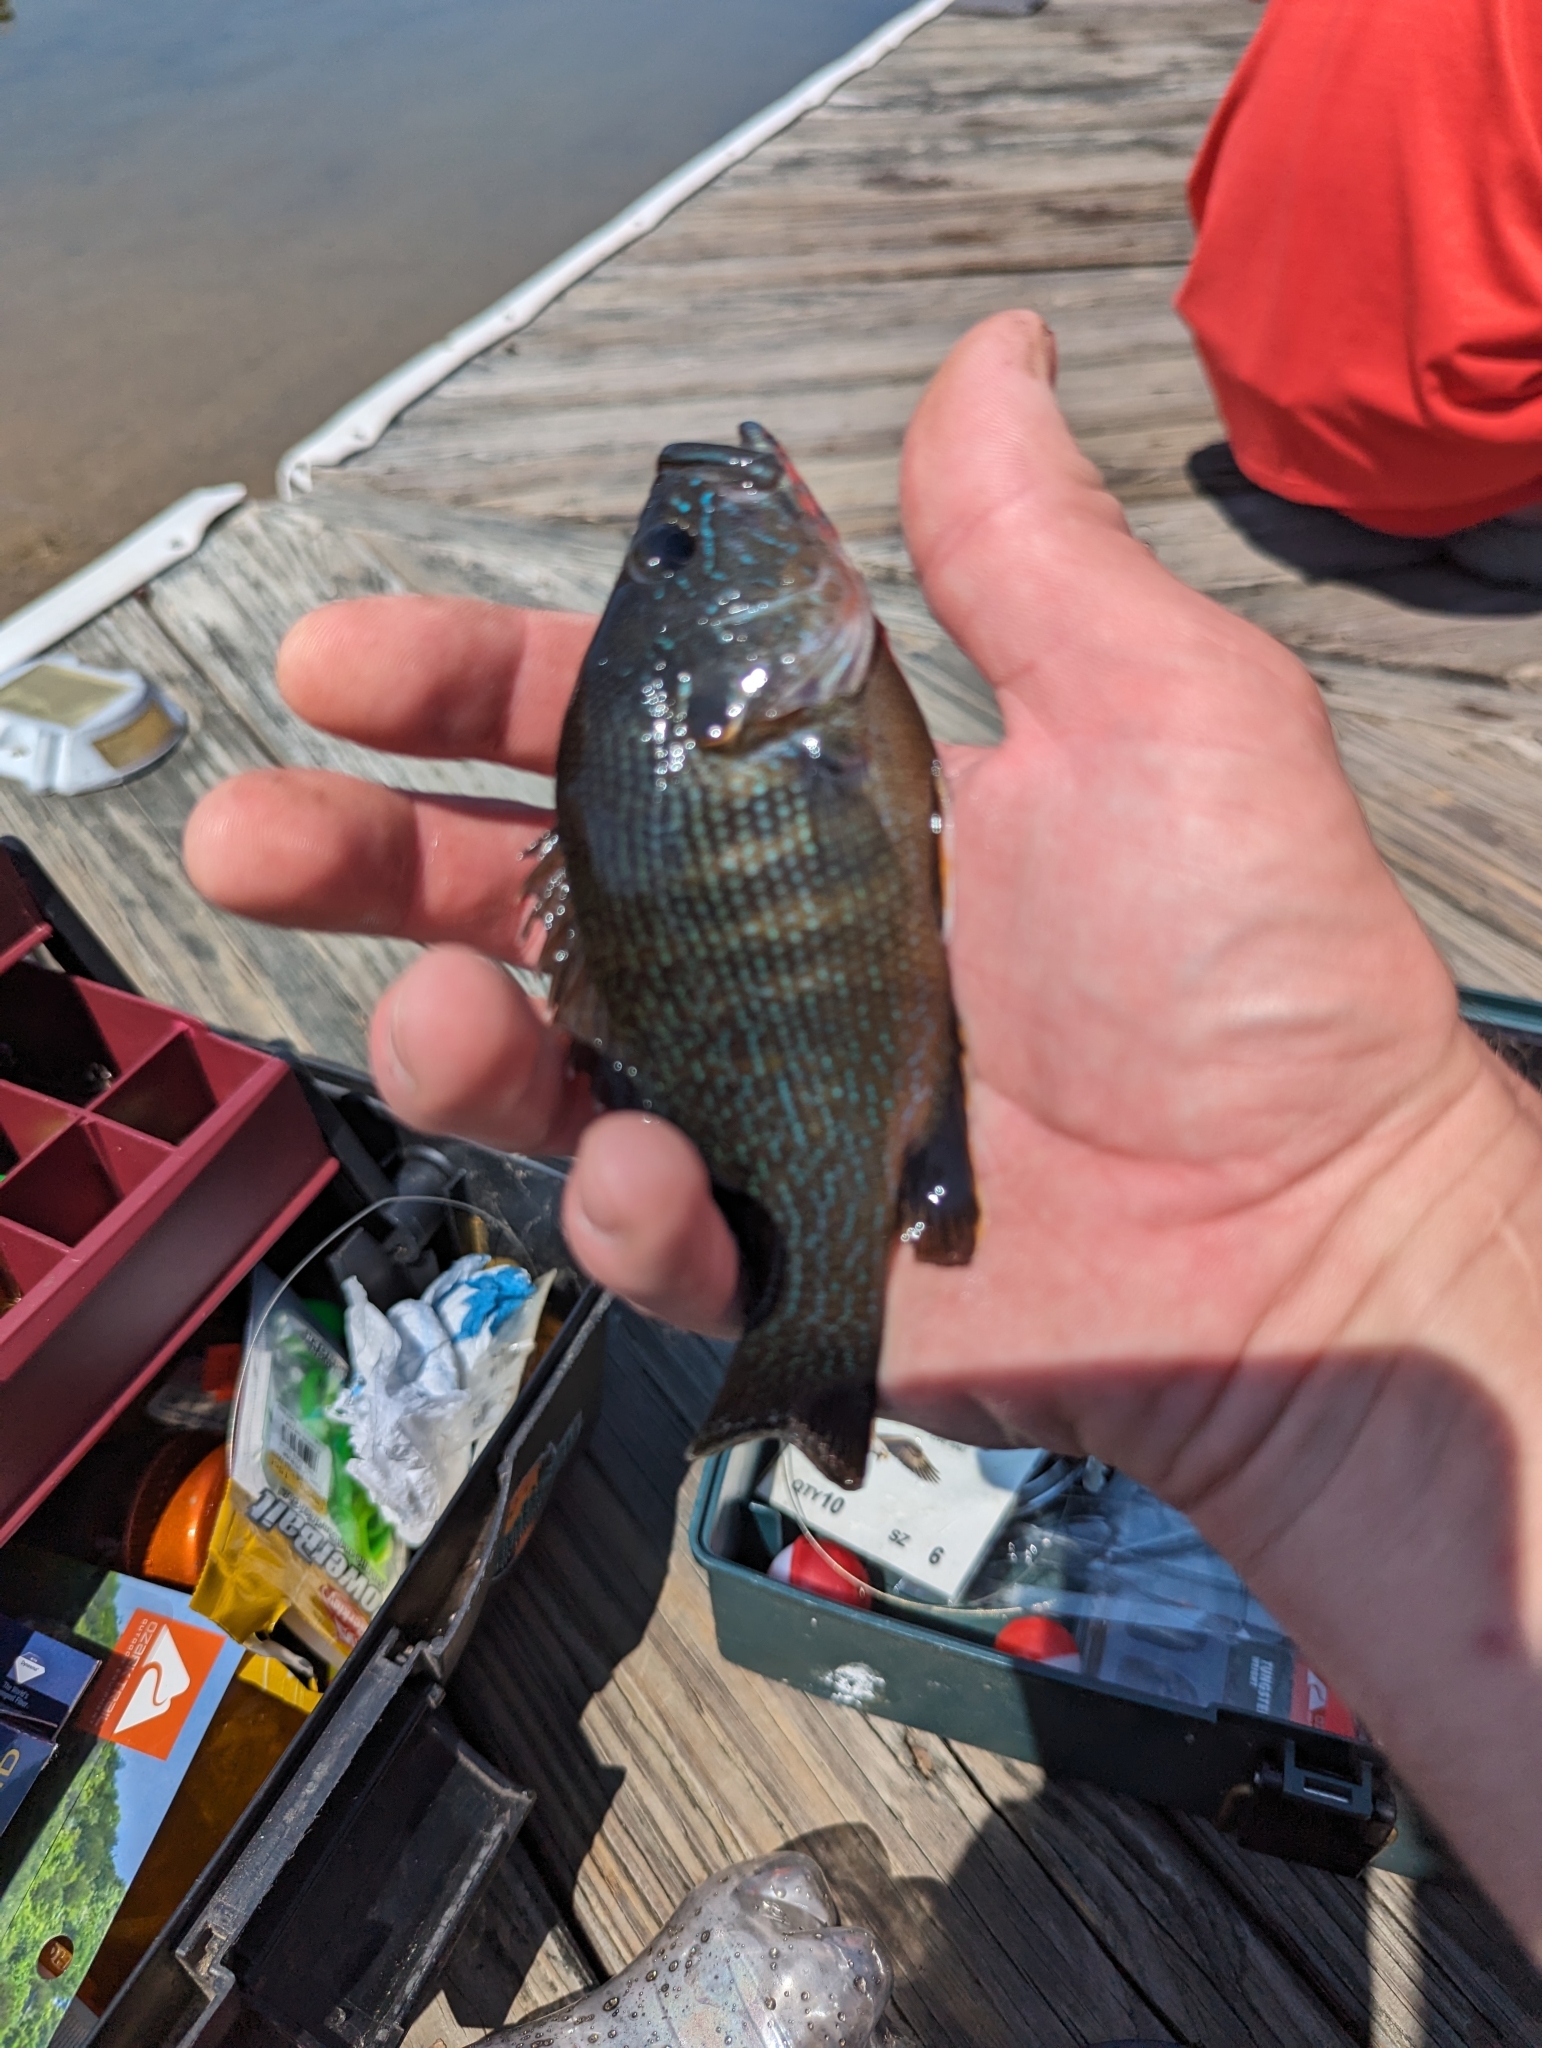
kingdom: Animalia
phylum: Chordata
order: Perciformes
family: Centrarchidae
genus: Lepomis
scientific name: Lepomis cyanellus
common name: Green sunfish
